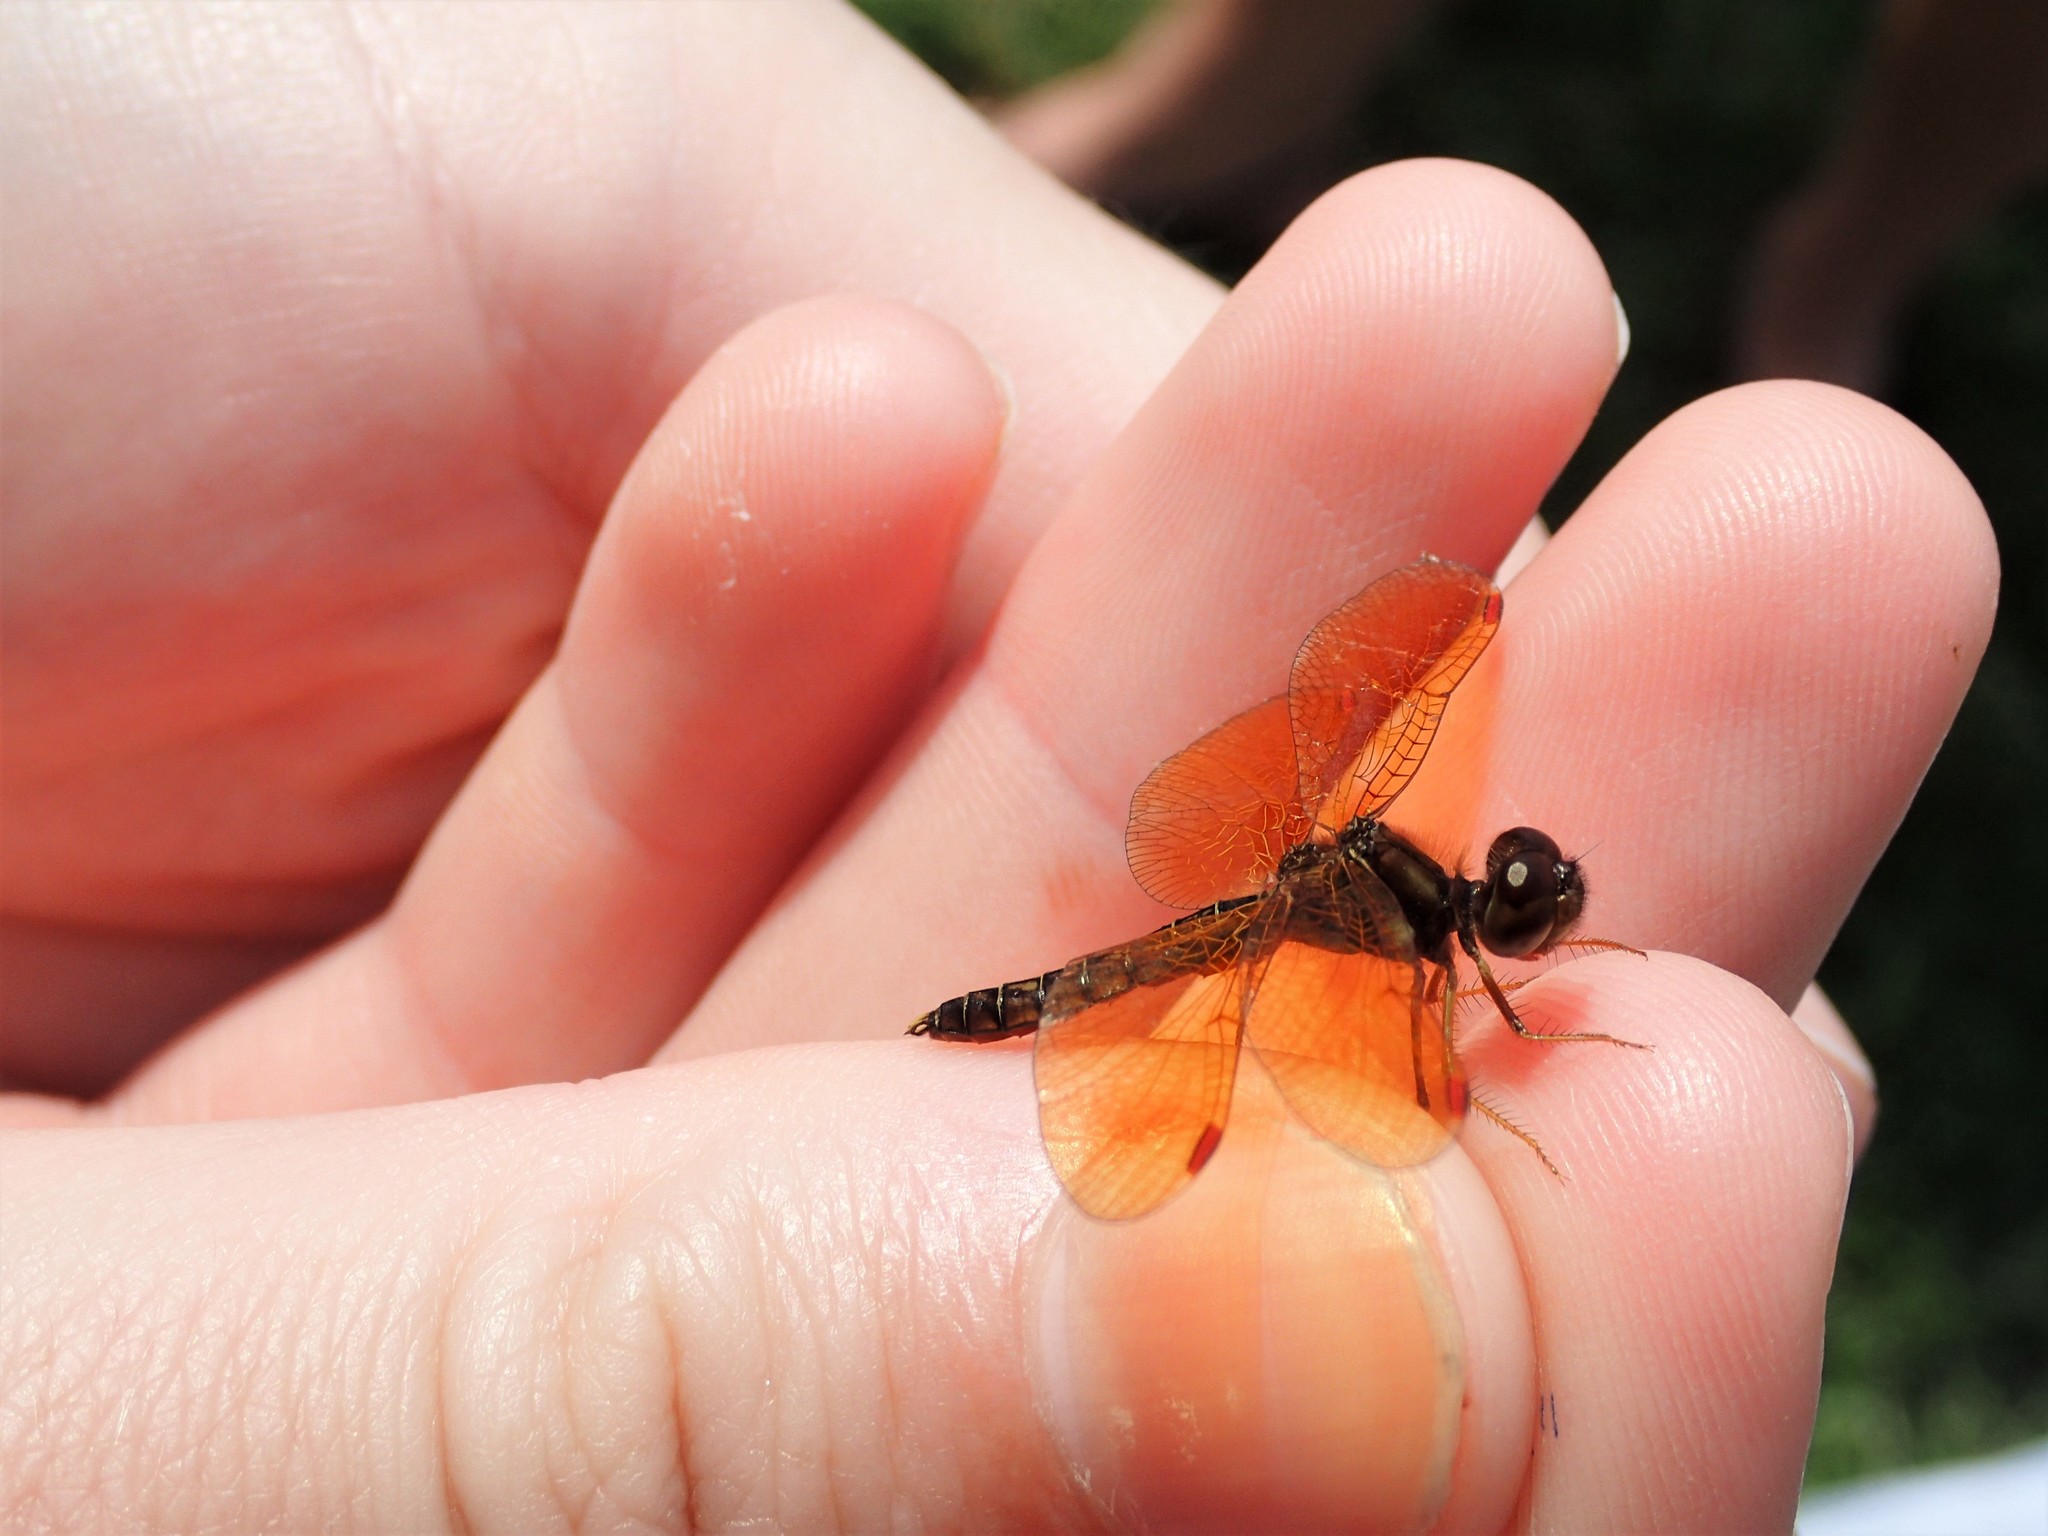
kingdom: Animalia
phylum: Arthropoda
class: Insecta
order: Odonata
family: Libellulidae
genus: Perithemis
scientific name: Perithemis tenera
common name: Eastern amberwing
